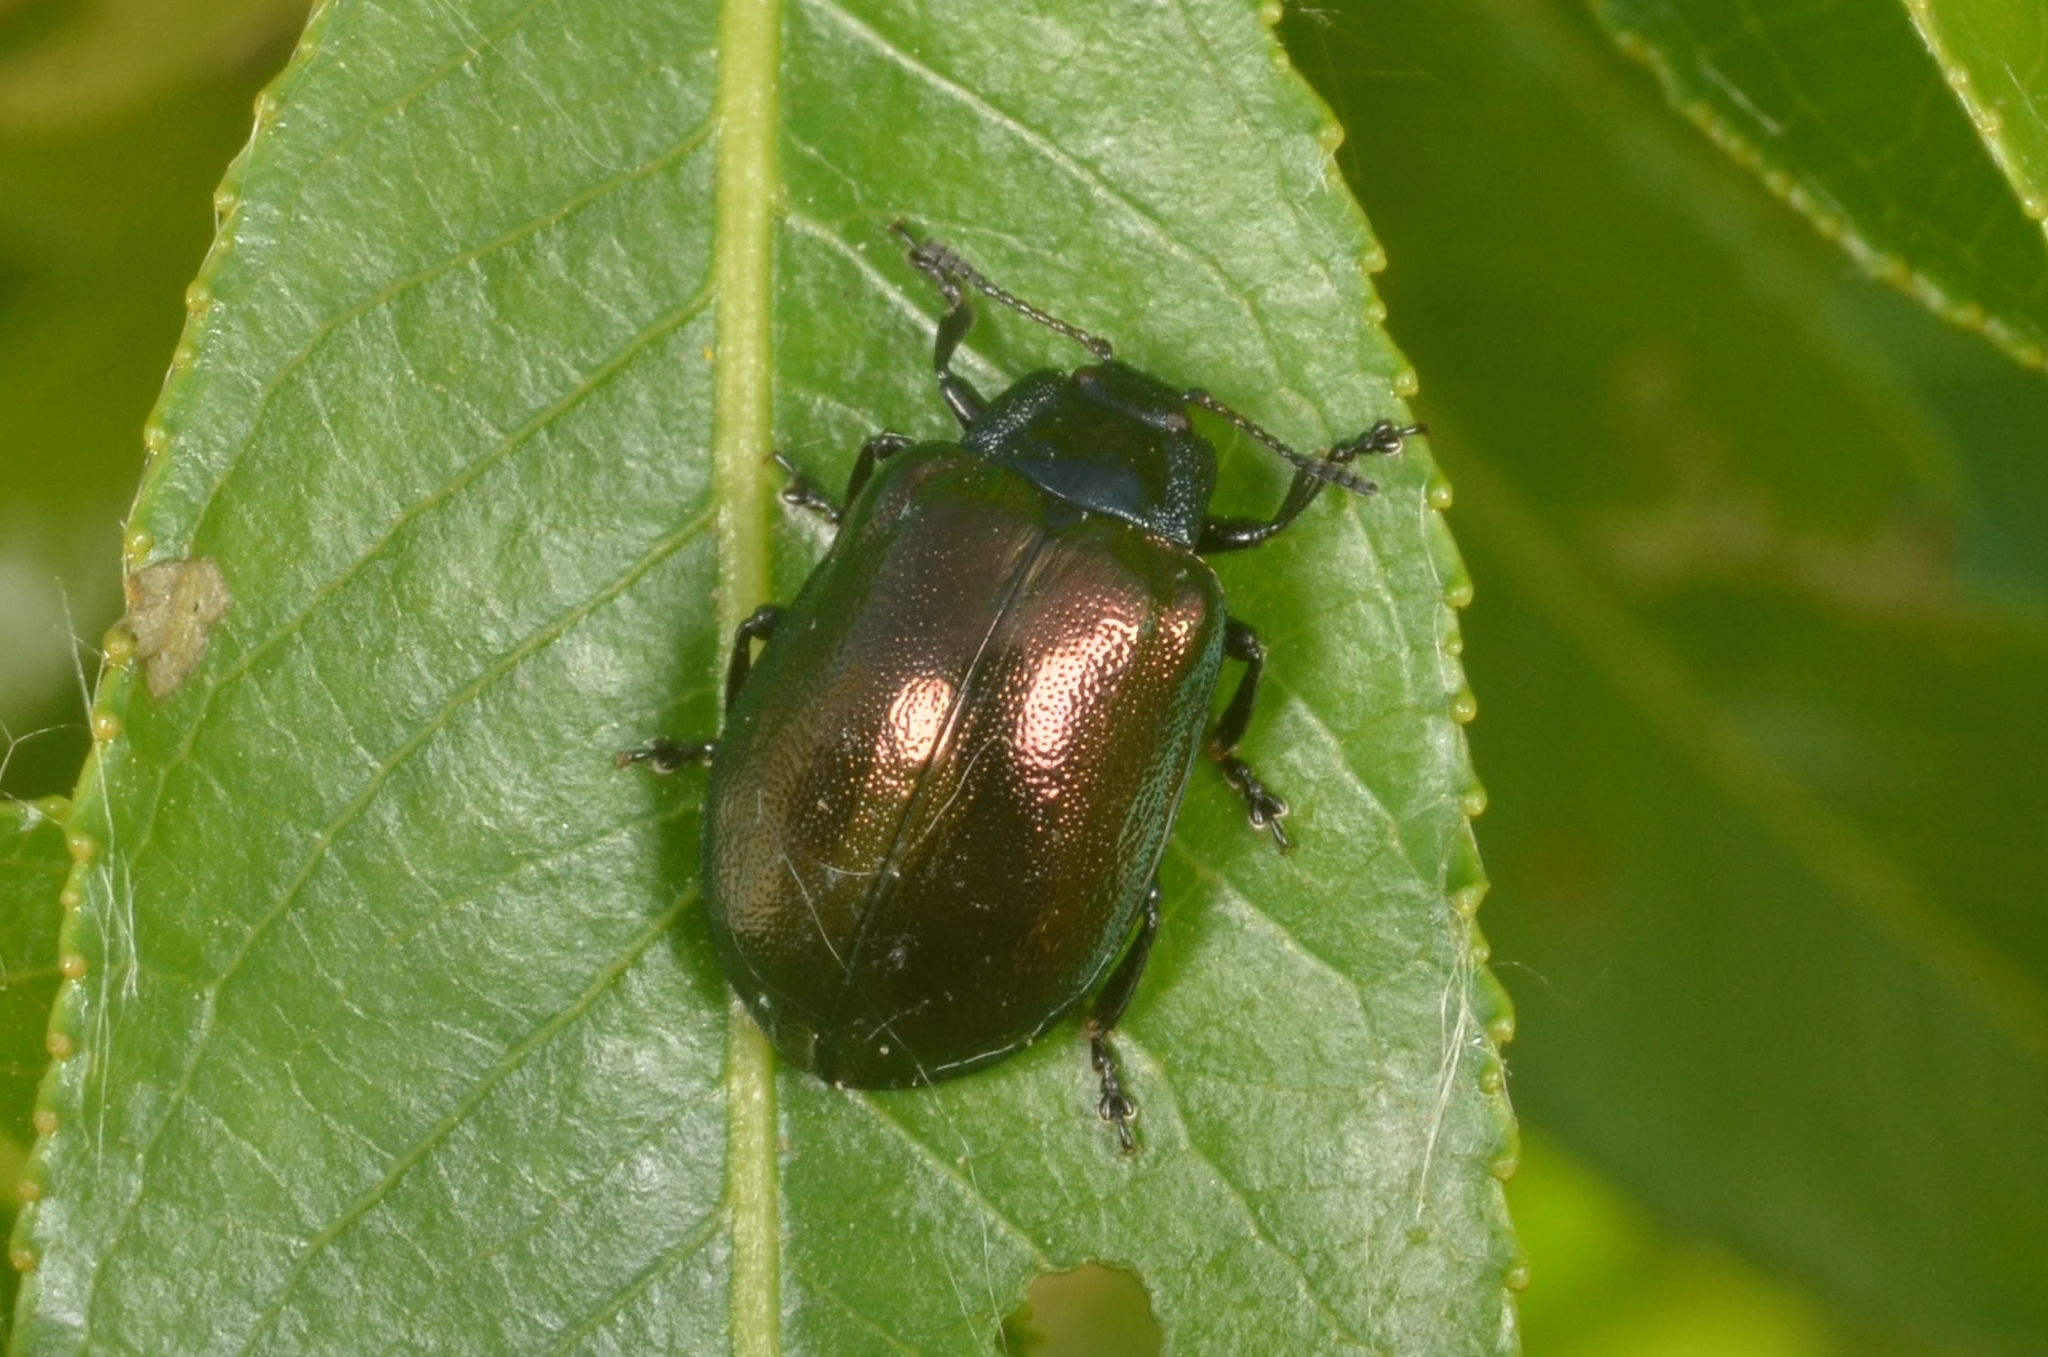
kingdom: Animalia
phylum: Arthropoda
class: Insecta
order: Coleoptera
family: Chrysomelidae
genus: Chrysomela
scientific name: Chrysomela cuprea
